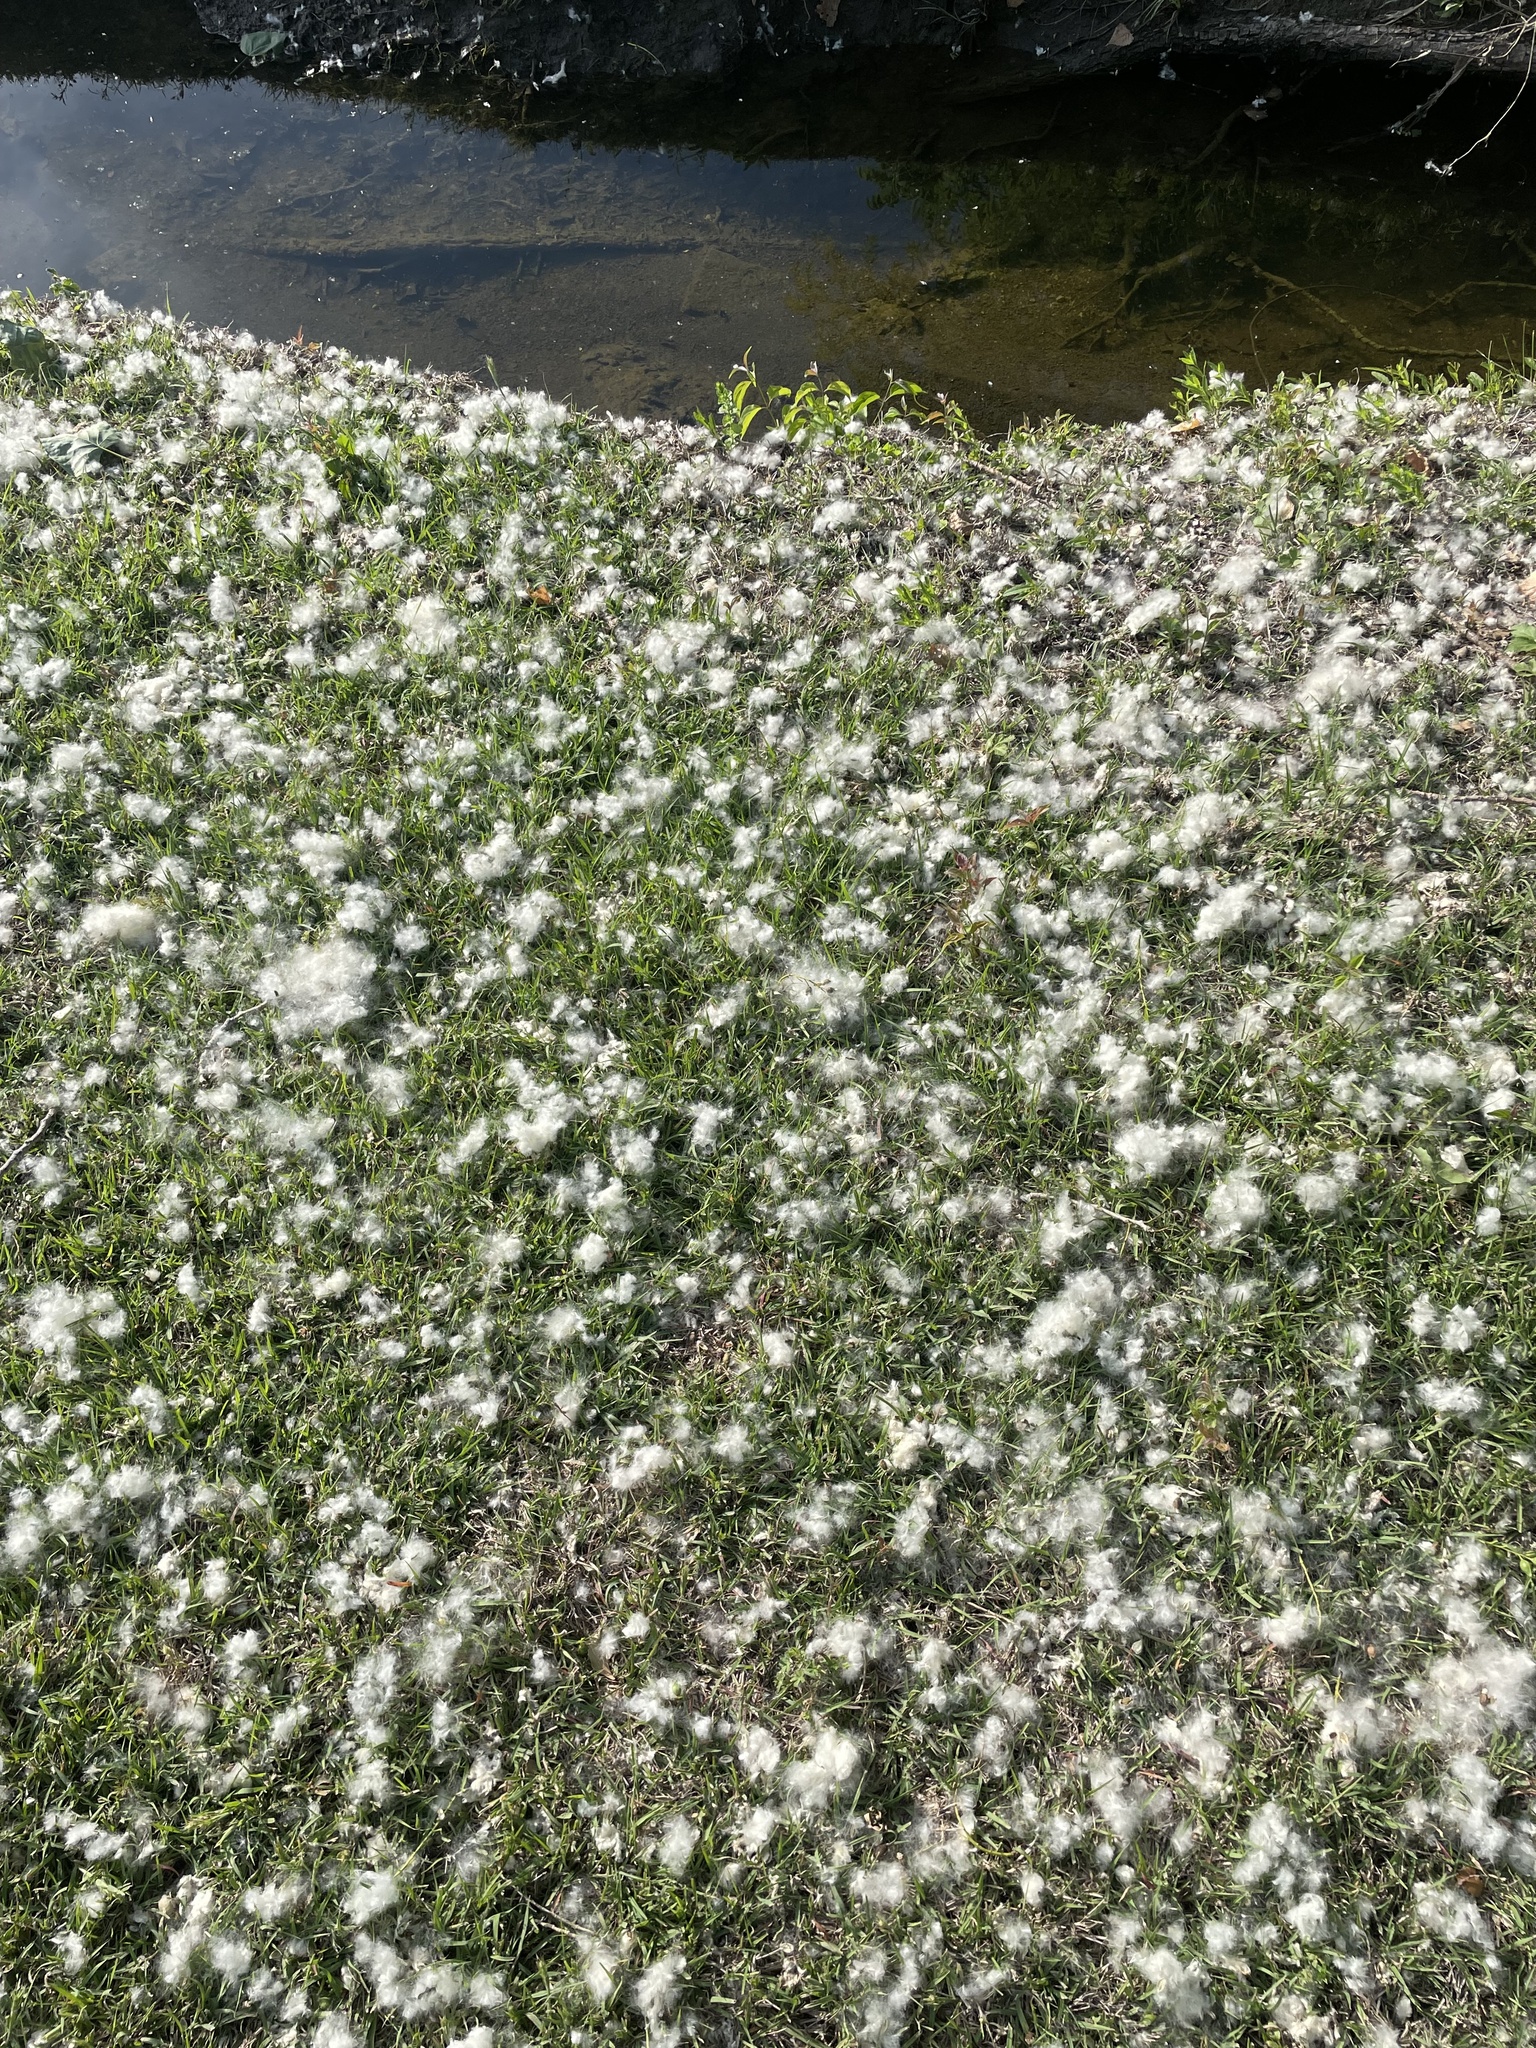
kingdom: Plantae
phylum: Tracheophyta
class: Magnoliopsida
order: Malpighiales
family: Salicaceae
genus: Populus
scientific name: Populus deltoides
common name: Eastern cottonwood
